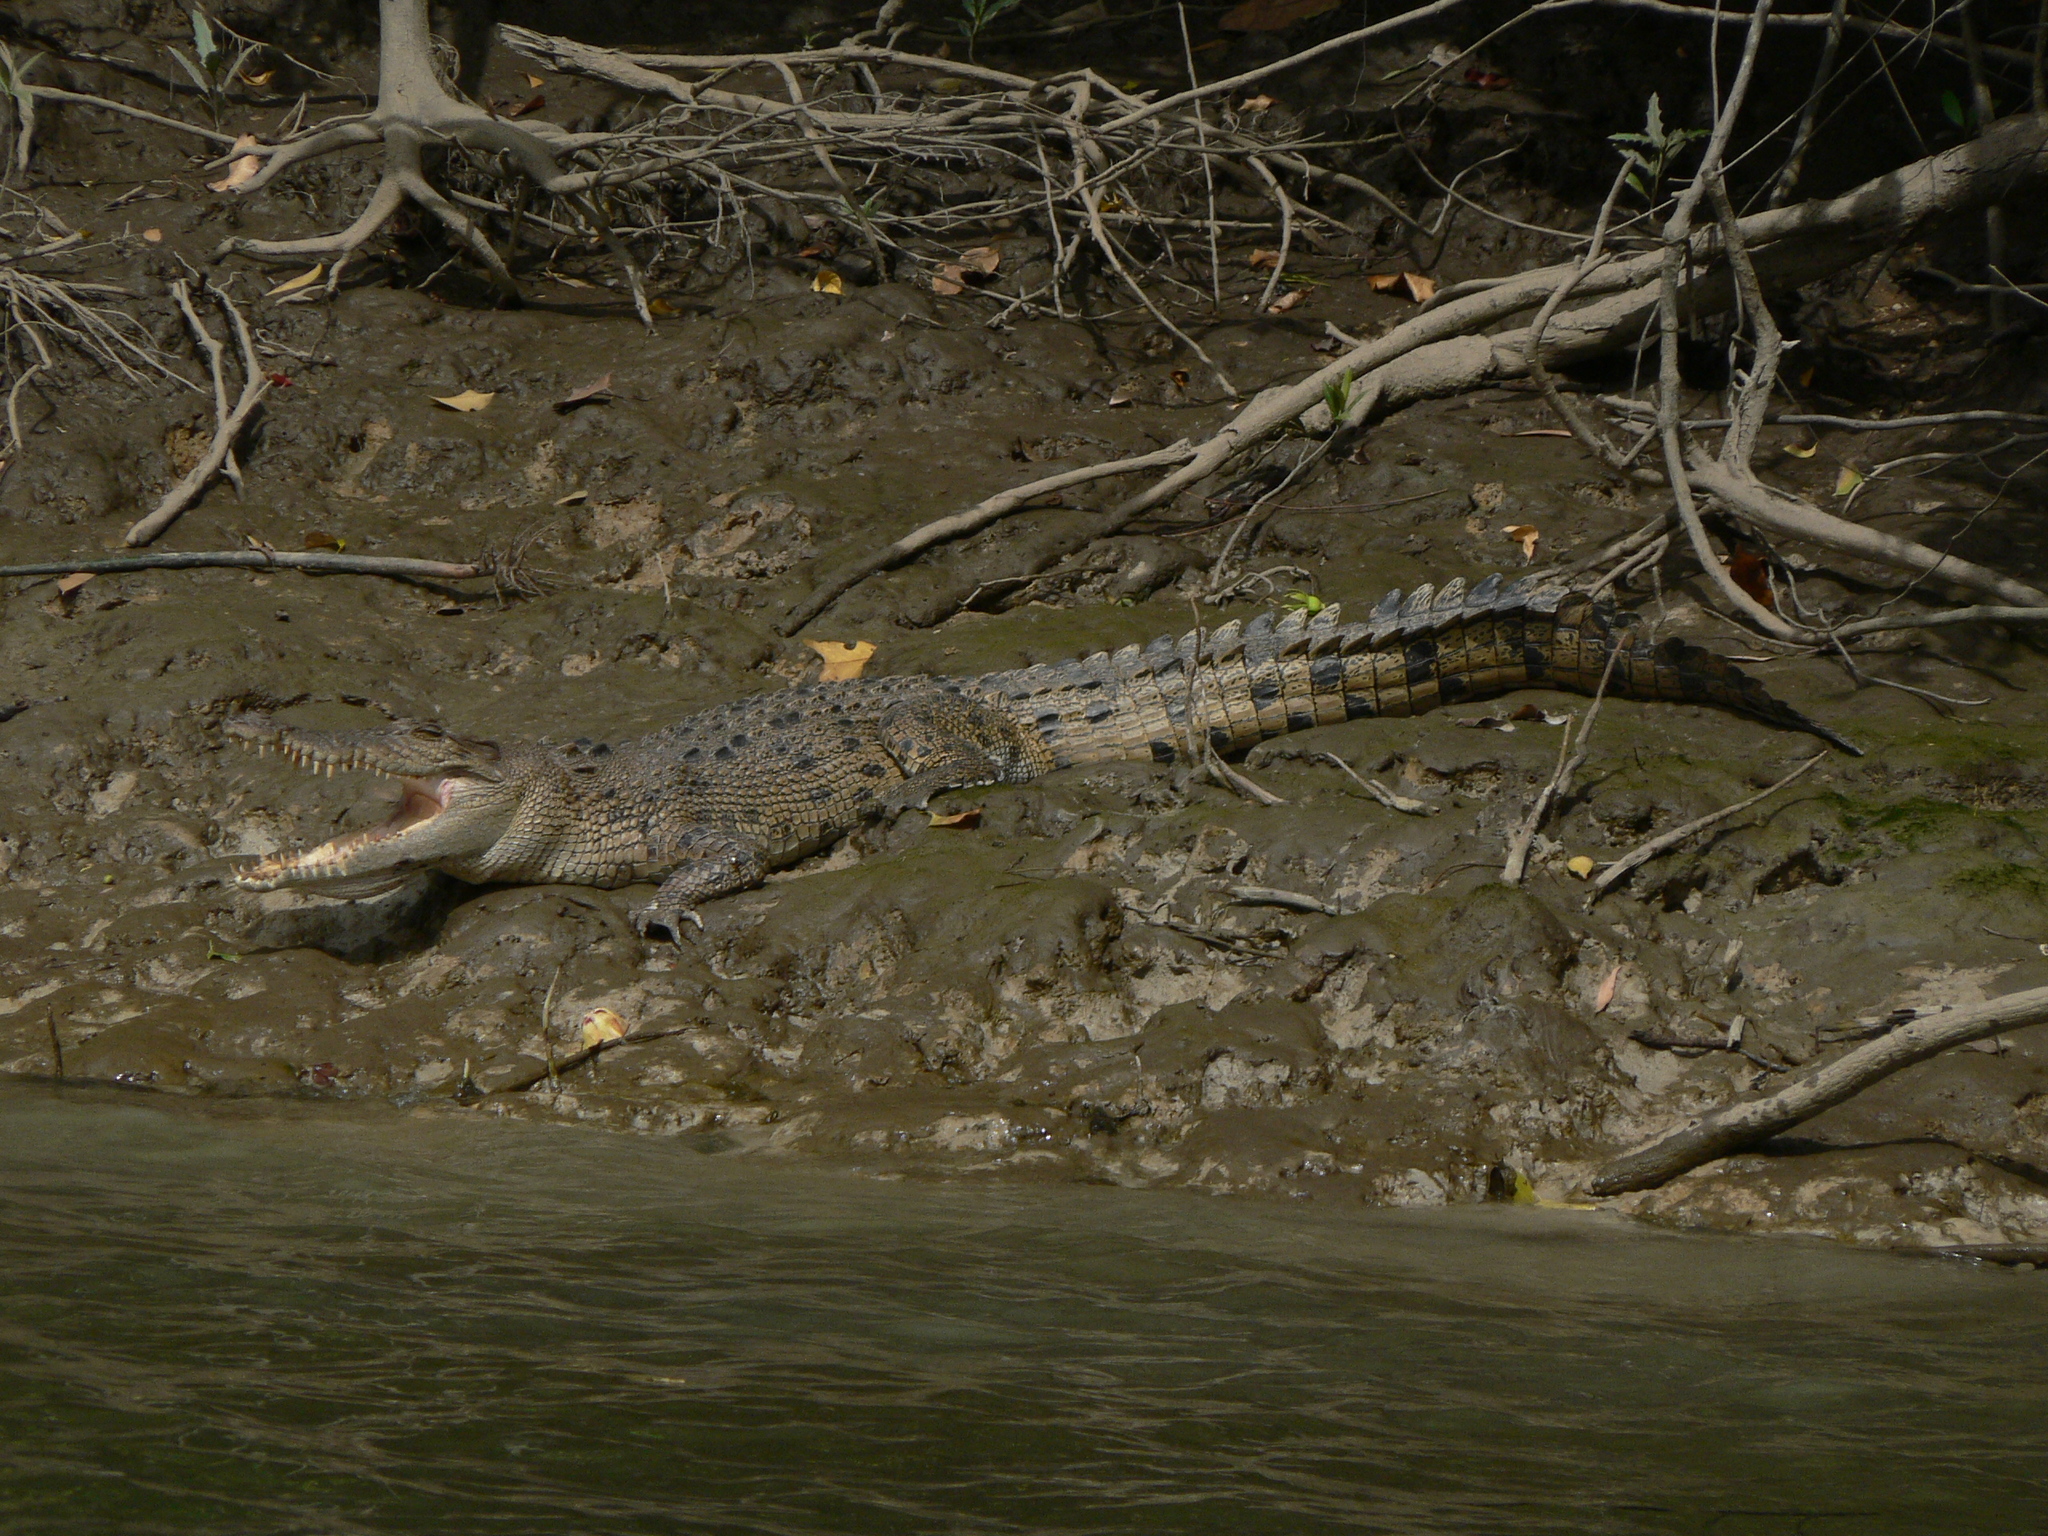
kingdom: Animalia
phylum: Chordata
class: Crocodylia
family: Crocodylidae
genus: Crocodylus
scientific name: Crocodylus porosus
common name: Saltwater crocodile
